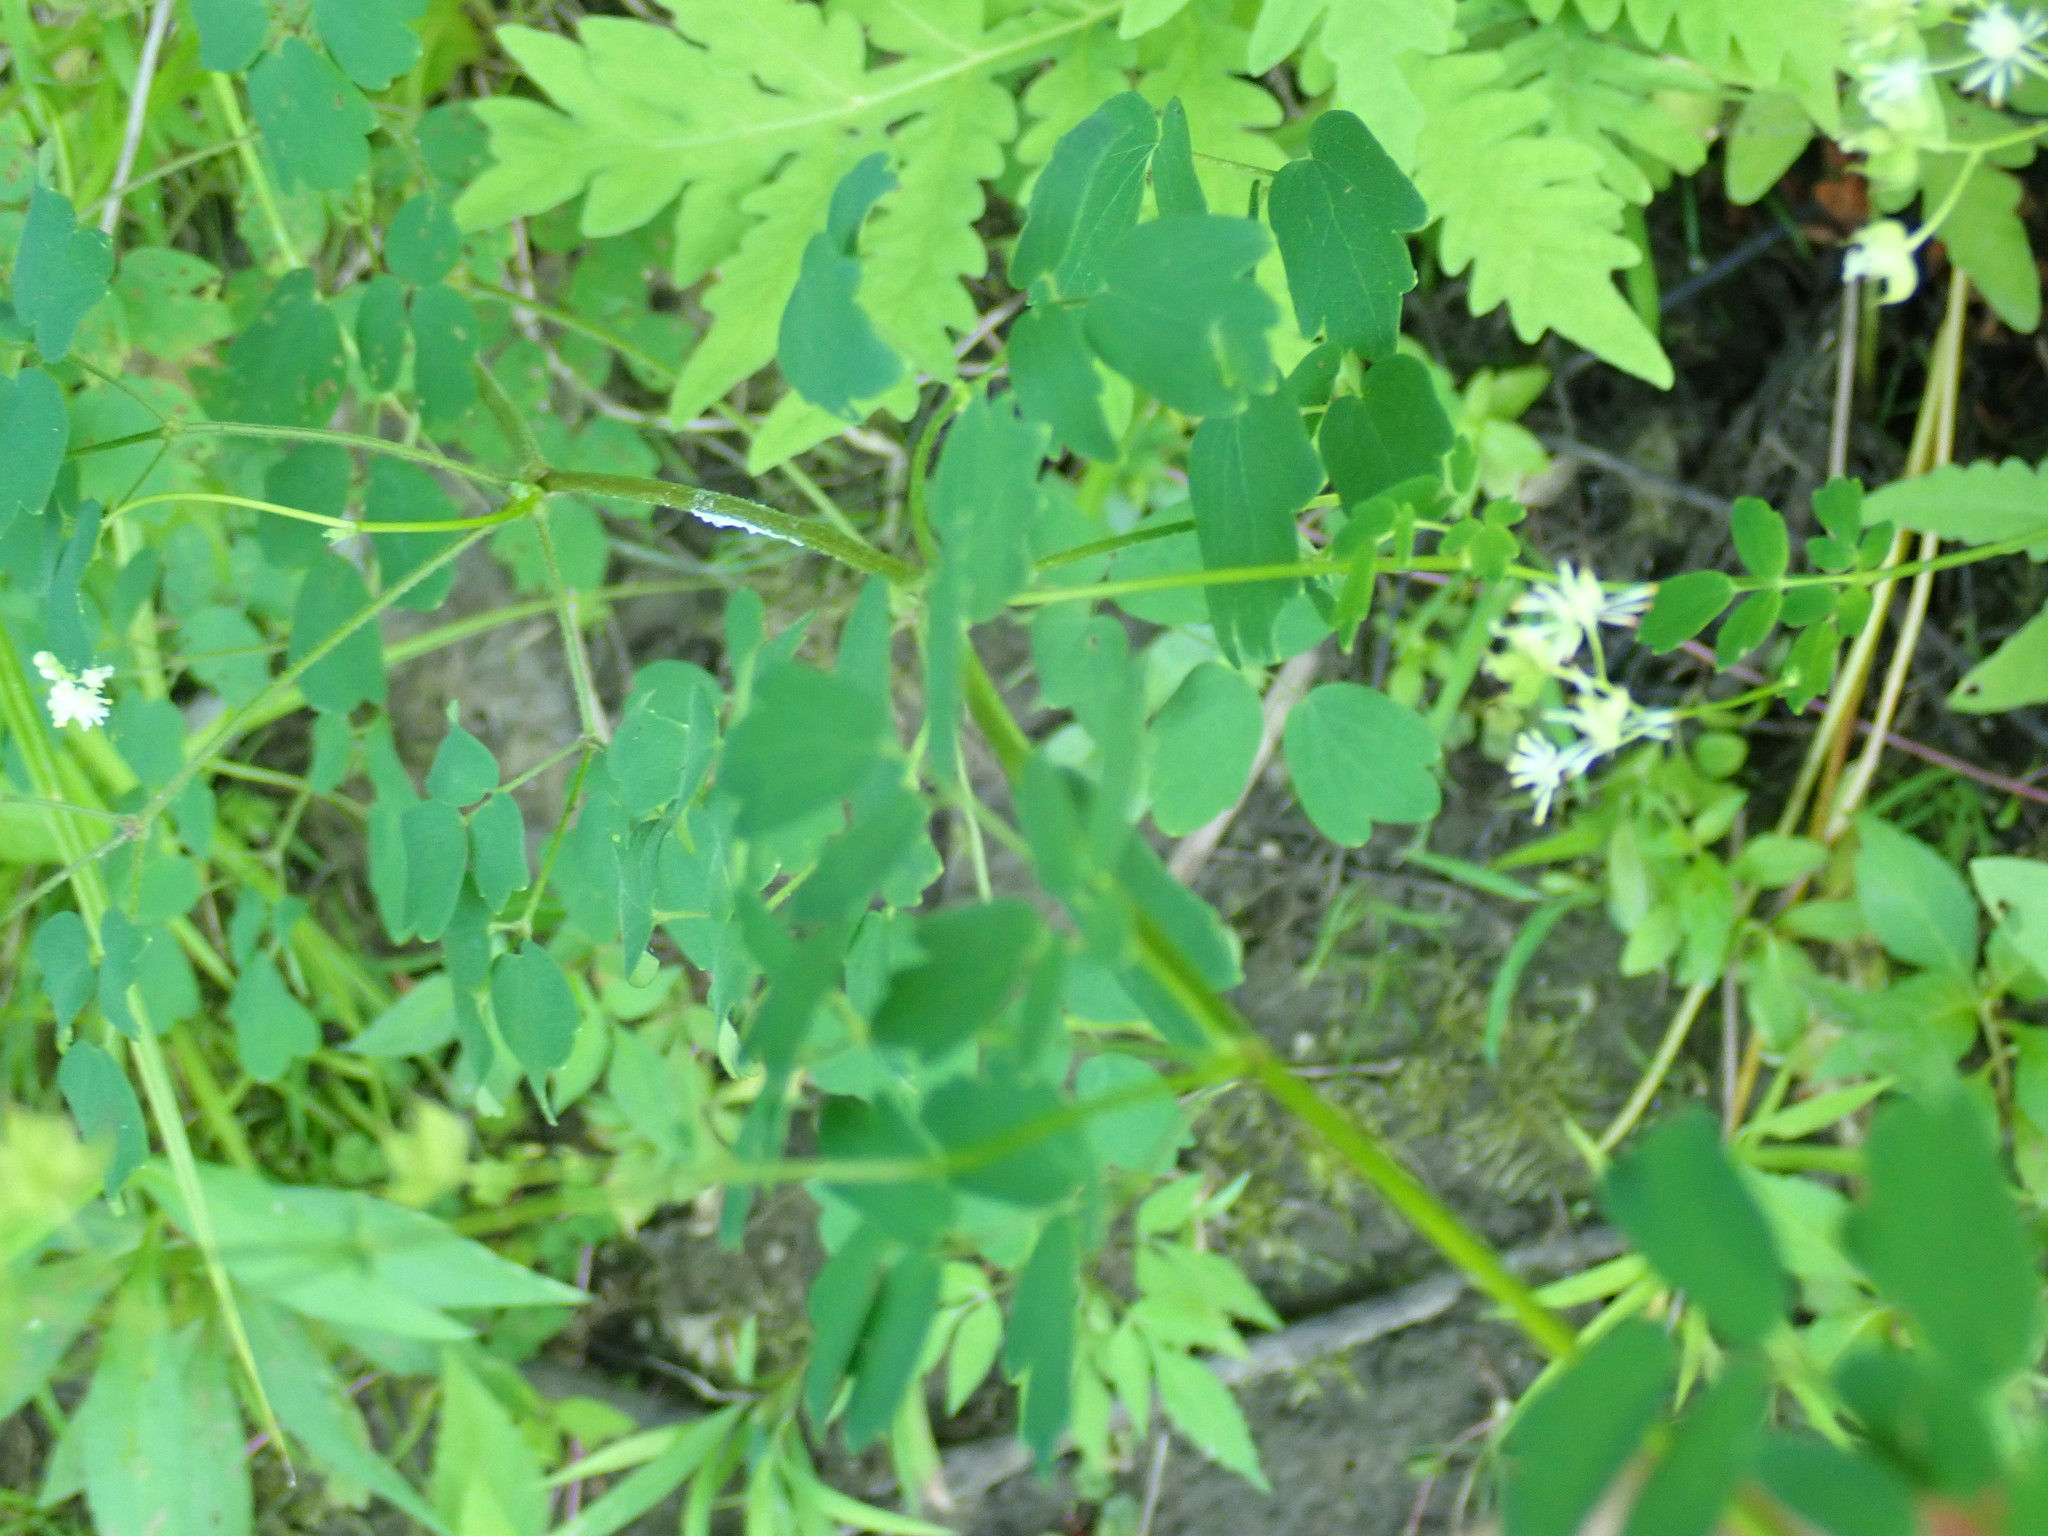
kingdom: Plantae
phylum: Tracheophyta
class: Magnoliopsida
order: Ranunculales
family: Ranunculaceae
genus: Thalictrum
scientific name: Thalictrum pubescens
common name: King-of-the-meadow
